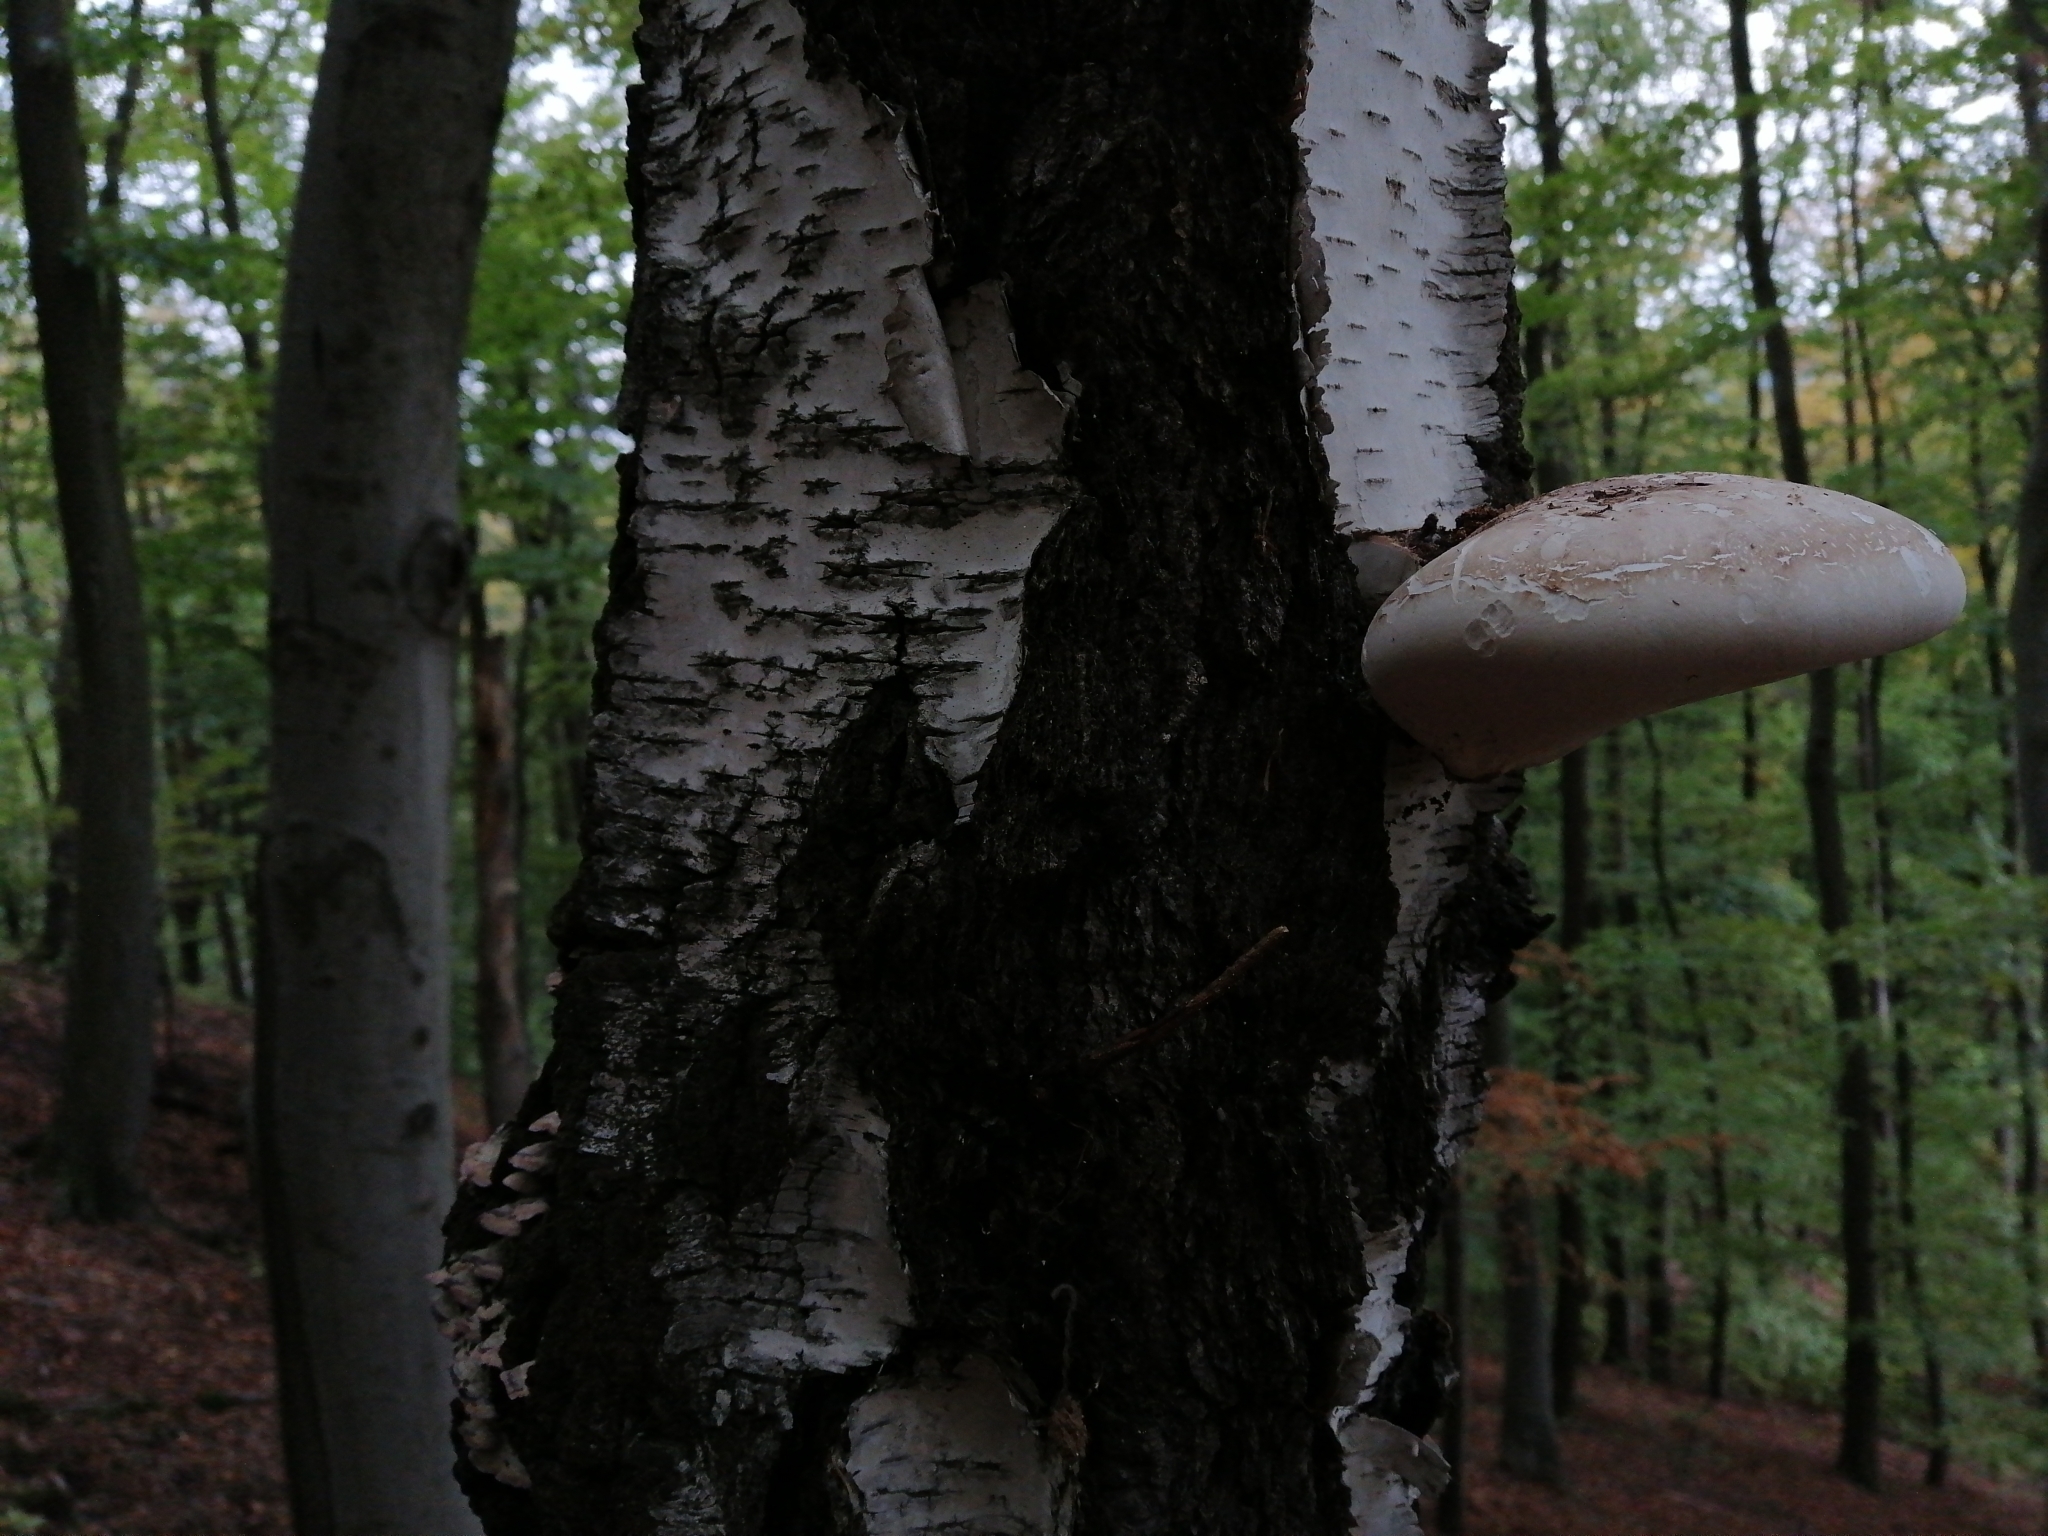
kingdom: Fungi
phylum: Basidiomycota
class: Agaricomycetes
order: Polyporales
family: Fomitopsidaceae
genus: Fomitopsis
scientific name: Fomitopsis betulina
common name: Birch polypore
